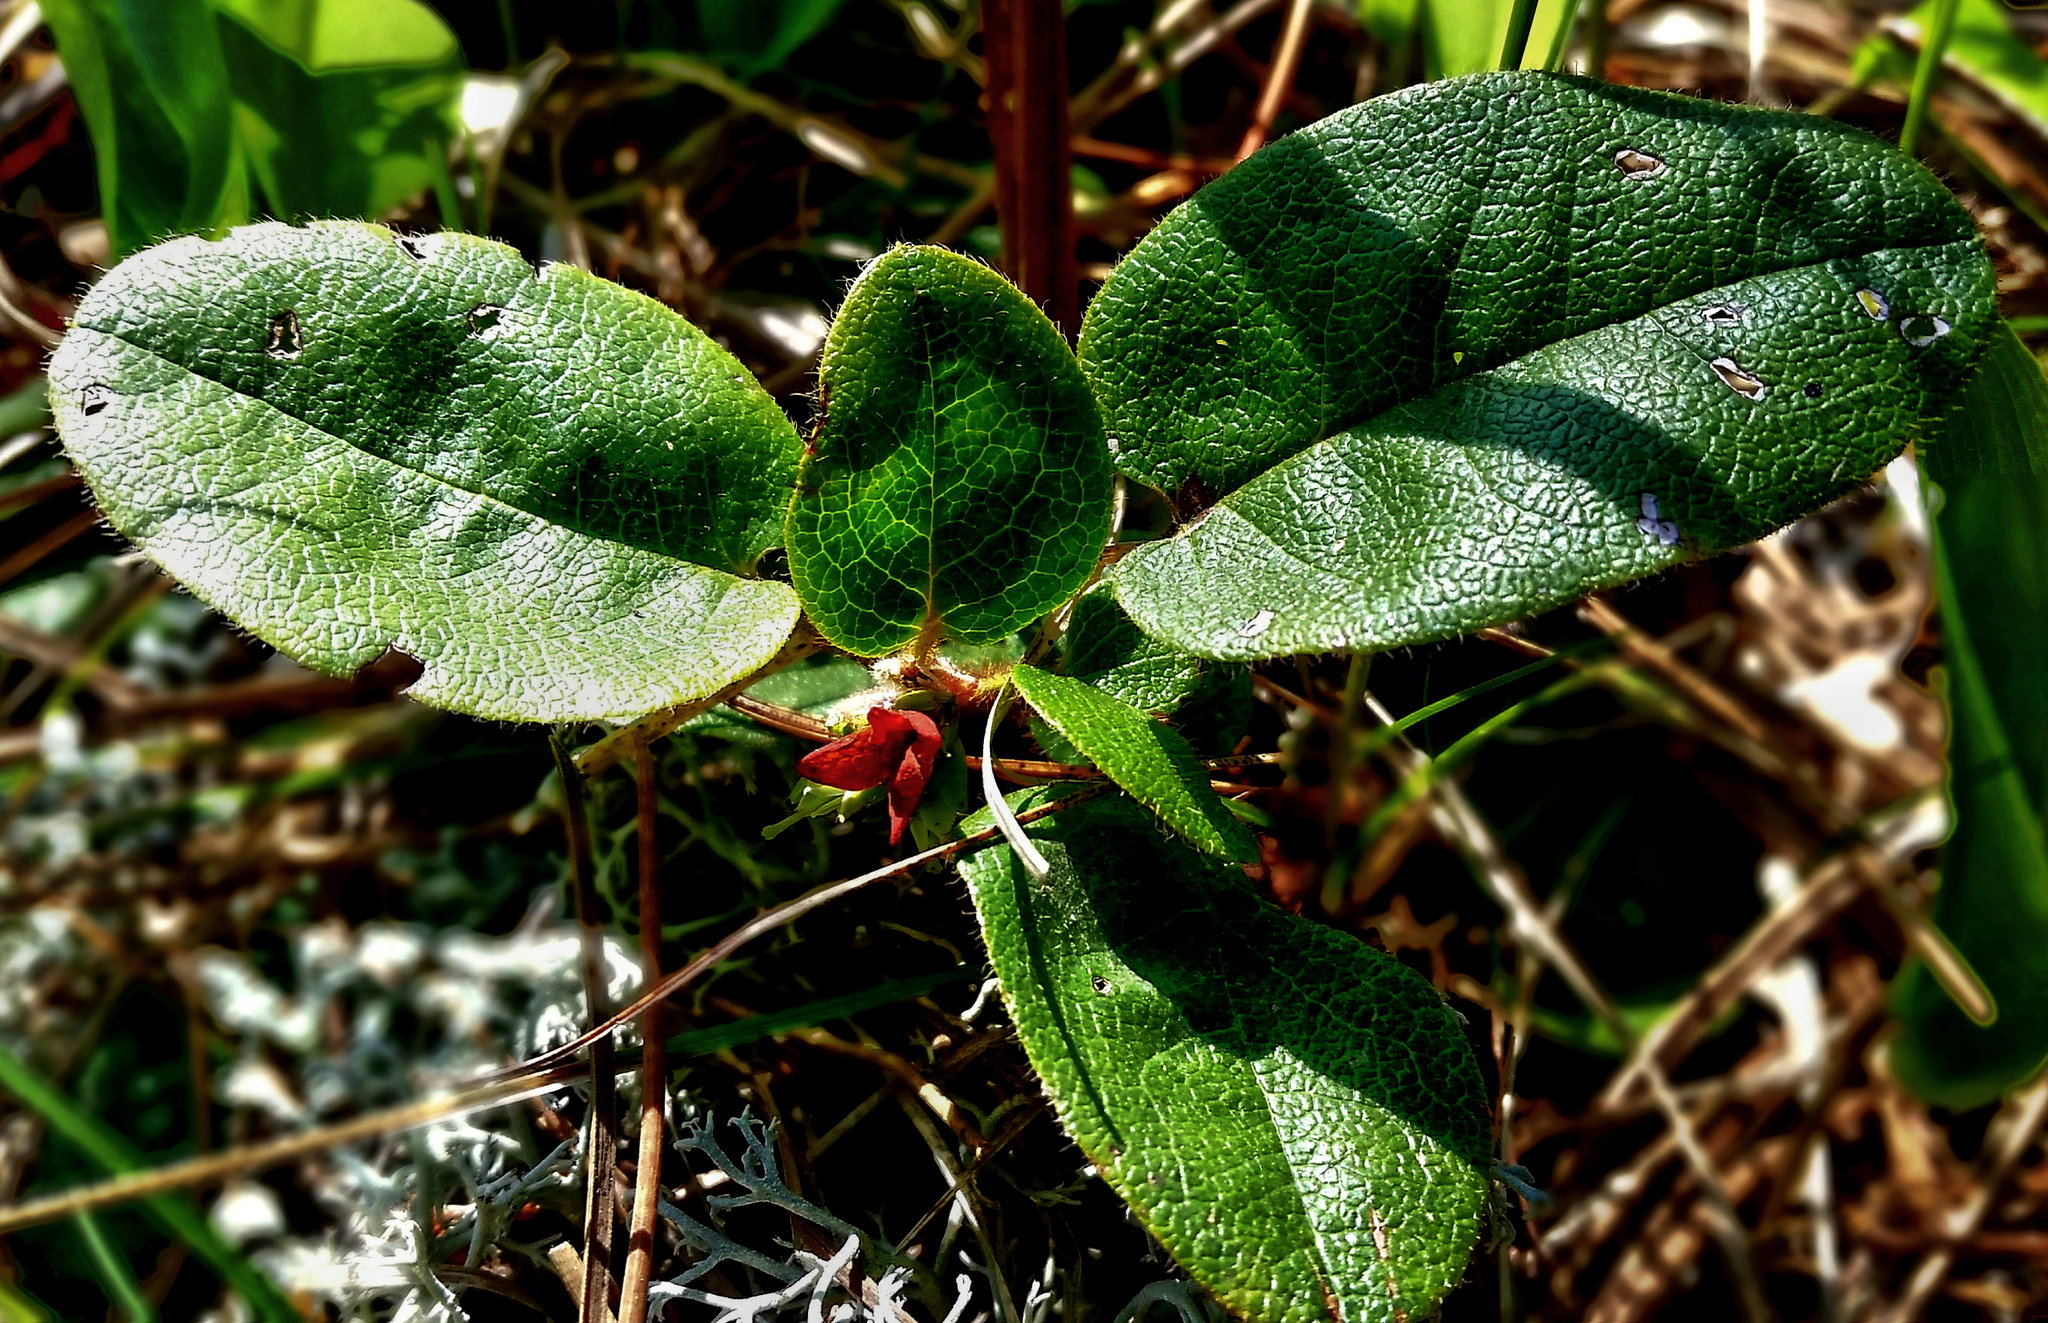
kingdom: Plantae
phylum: Tracheophyta
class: Magnoliopsida
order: Ericales
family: Ericaceae
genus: Epigaea
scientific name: Epigaea repens
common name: Gravelroot
